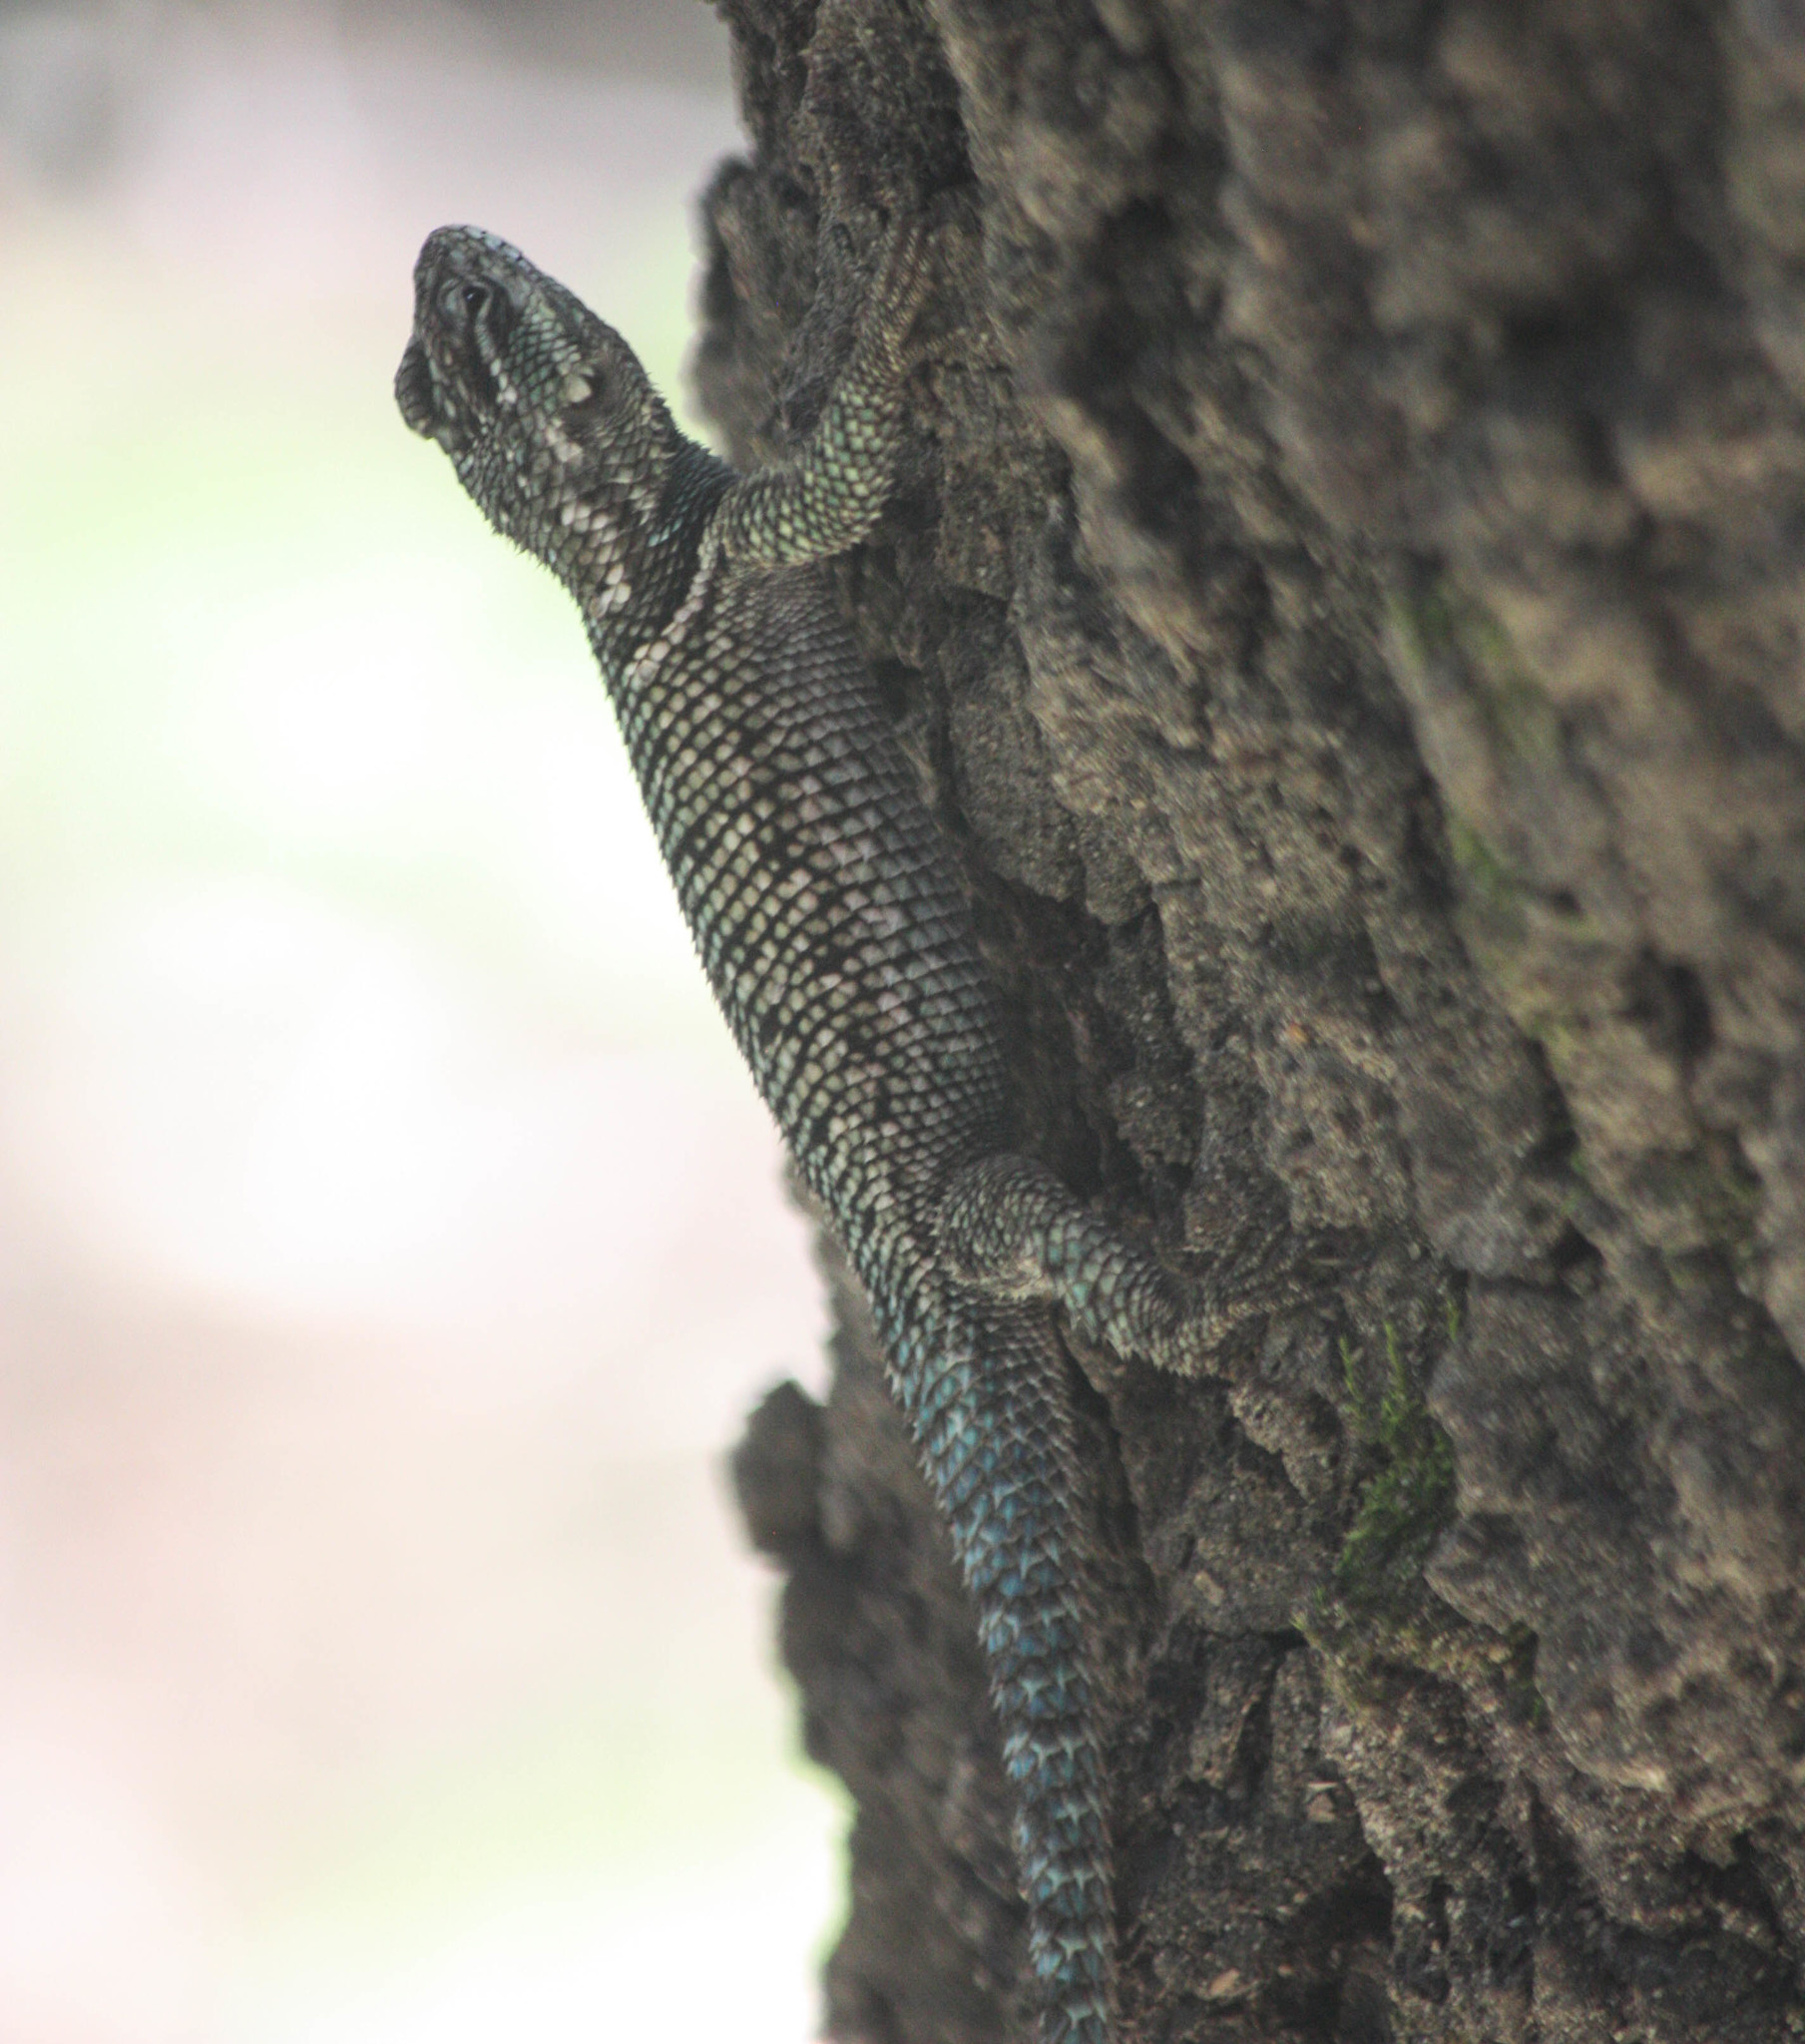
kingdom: Animalia
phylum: Chordata
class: Squamata
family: Phrynosomatidae
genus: Sceloporus
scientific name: Sceloporus jarrovii
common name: Yarrow's spiny lizard
